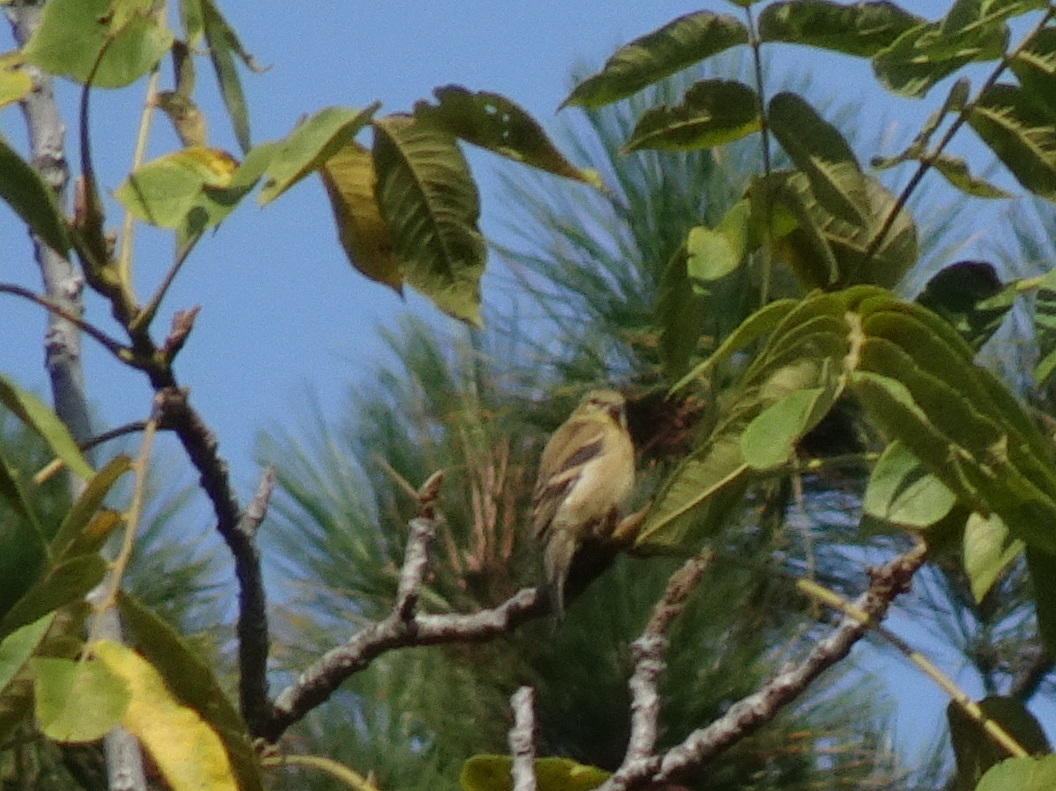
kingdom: Animalia
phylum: Chordata
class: Aves
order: Passeriformes
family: Fringillidae
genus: Spinus
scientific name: Spinus tristis
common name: American goldfinch
